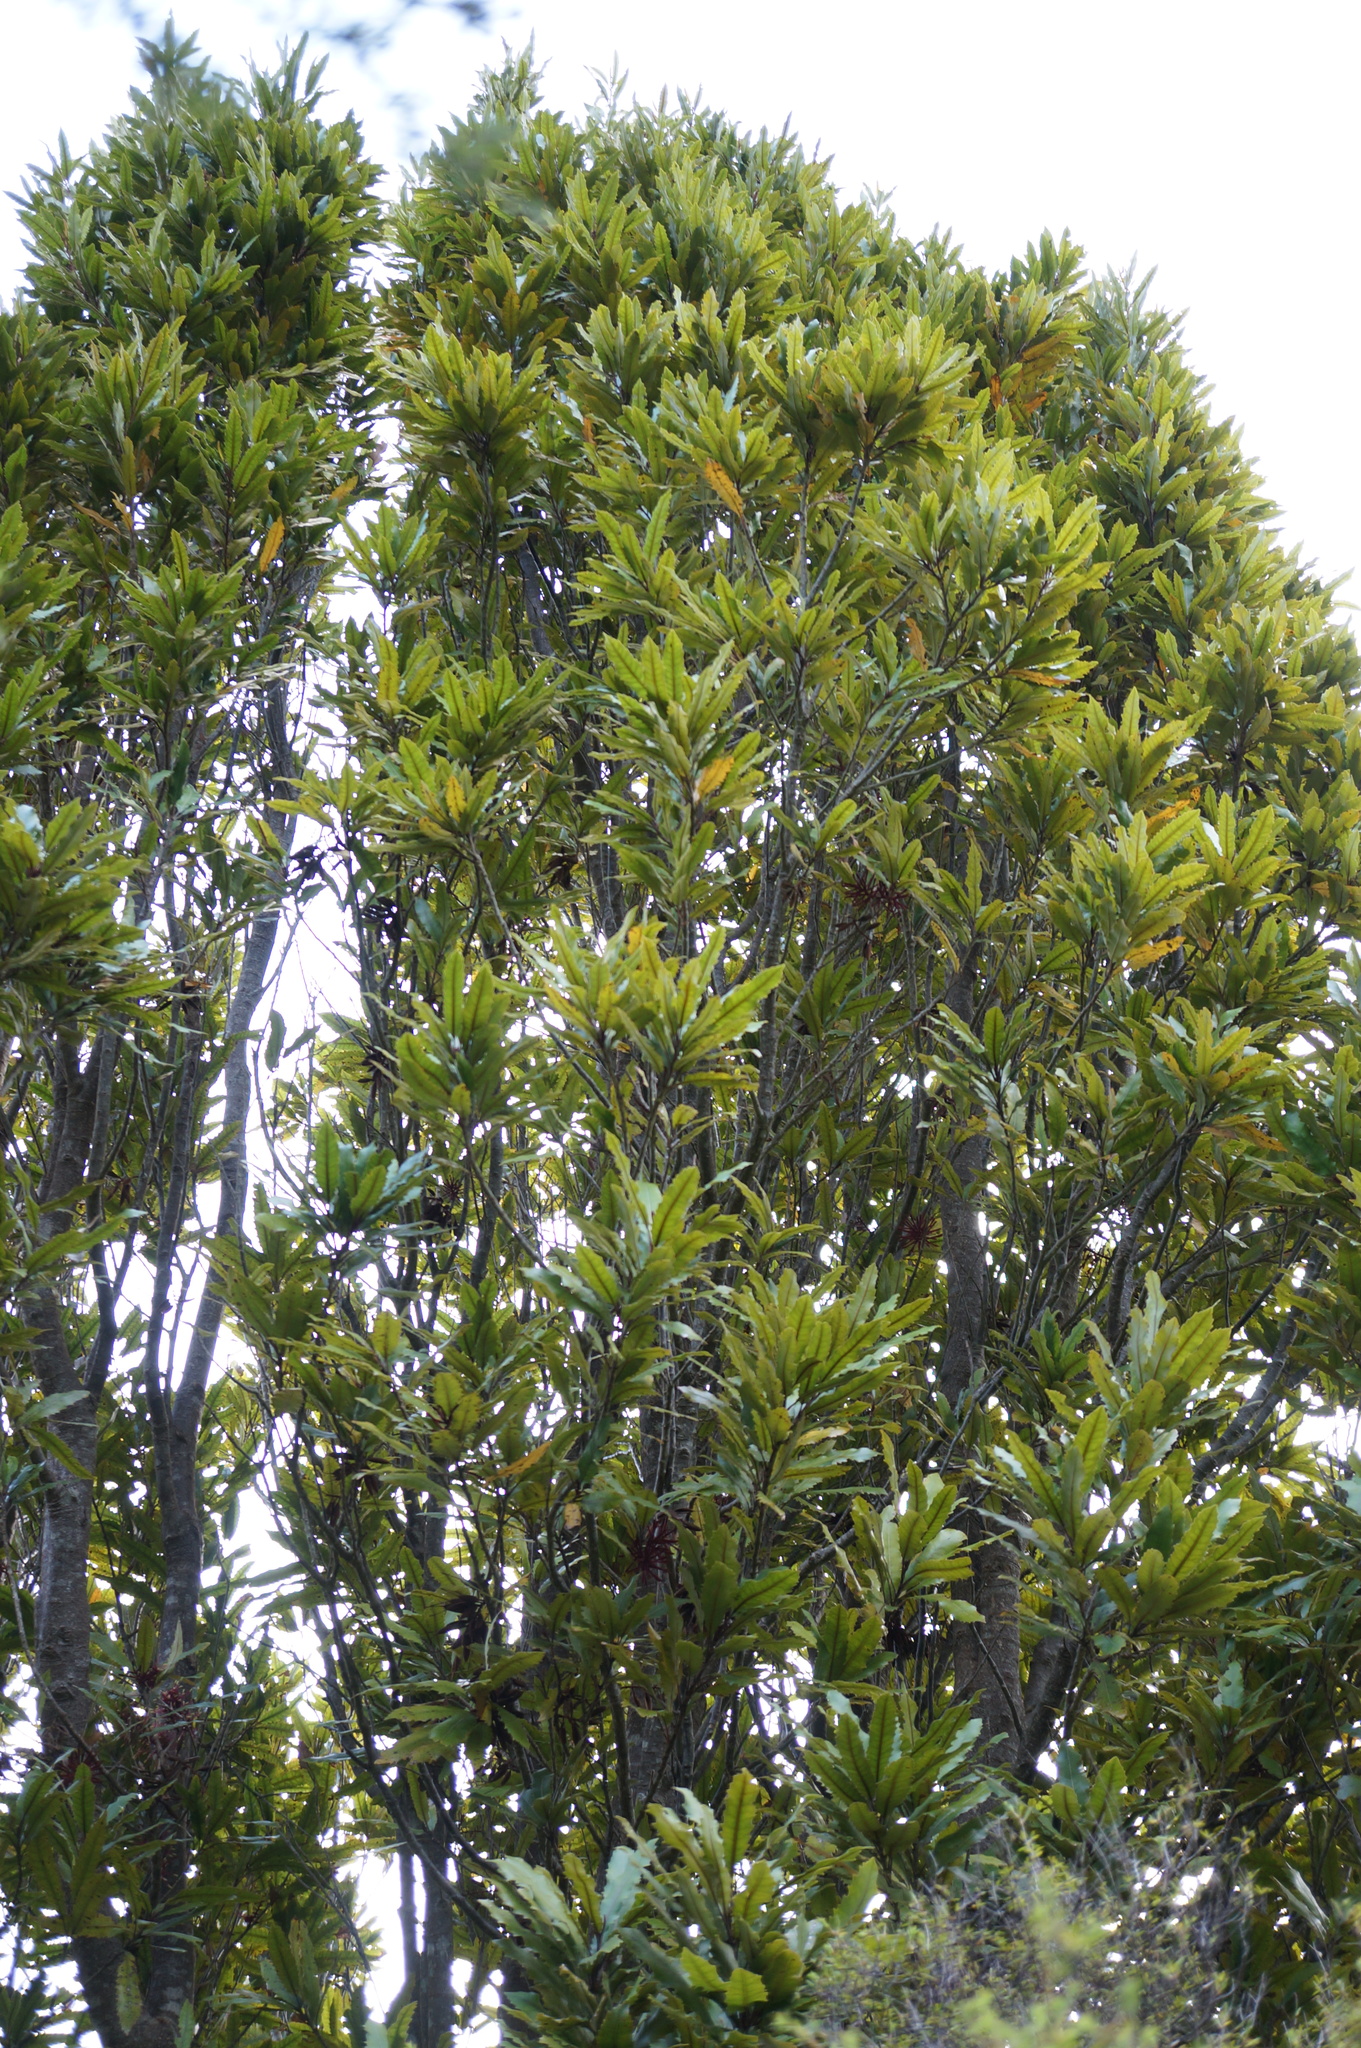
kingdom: Plantae
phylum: Tracheophyta
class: Magnoliopsida
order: Proteales
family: Proteaceae
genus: Knightia
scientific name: Knightia excelsa
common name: New zealand-honeysuckle
